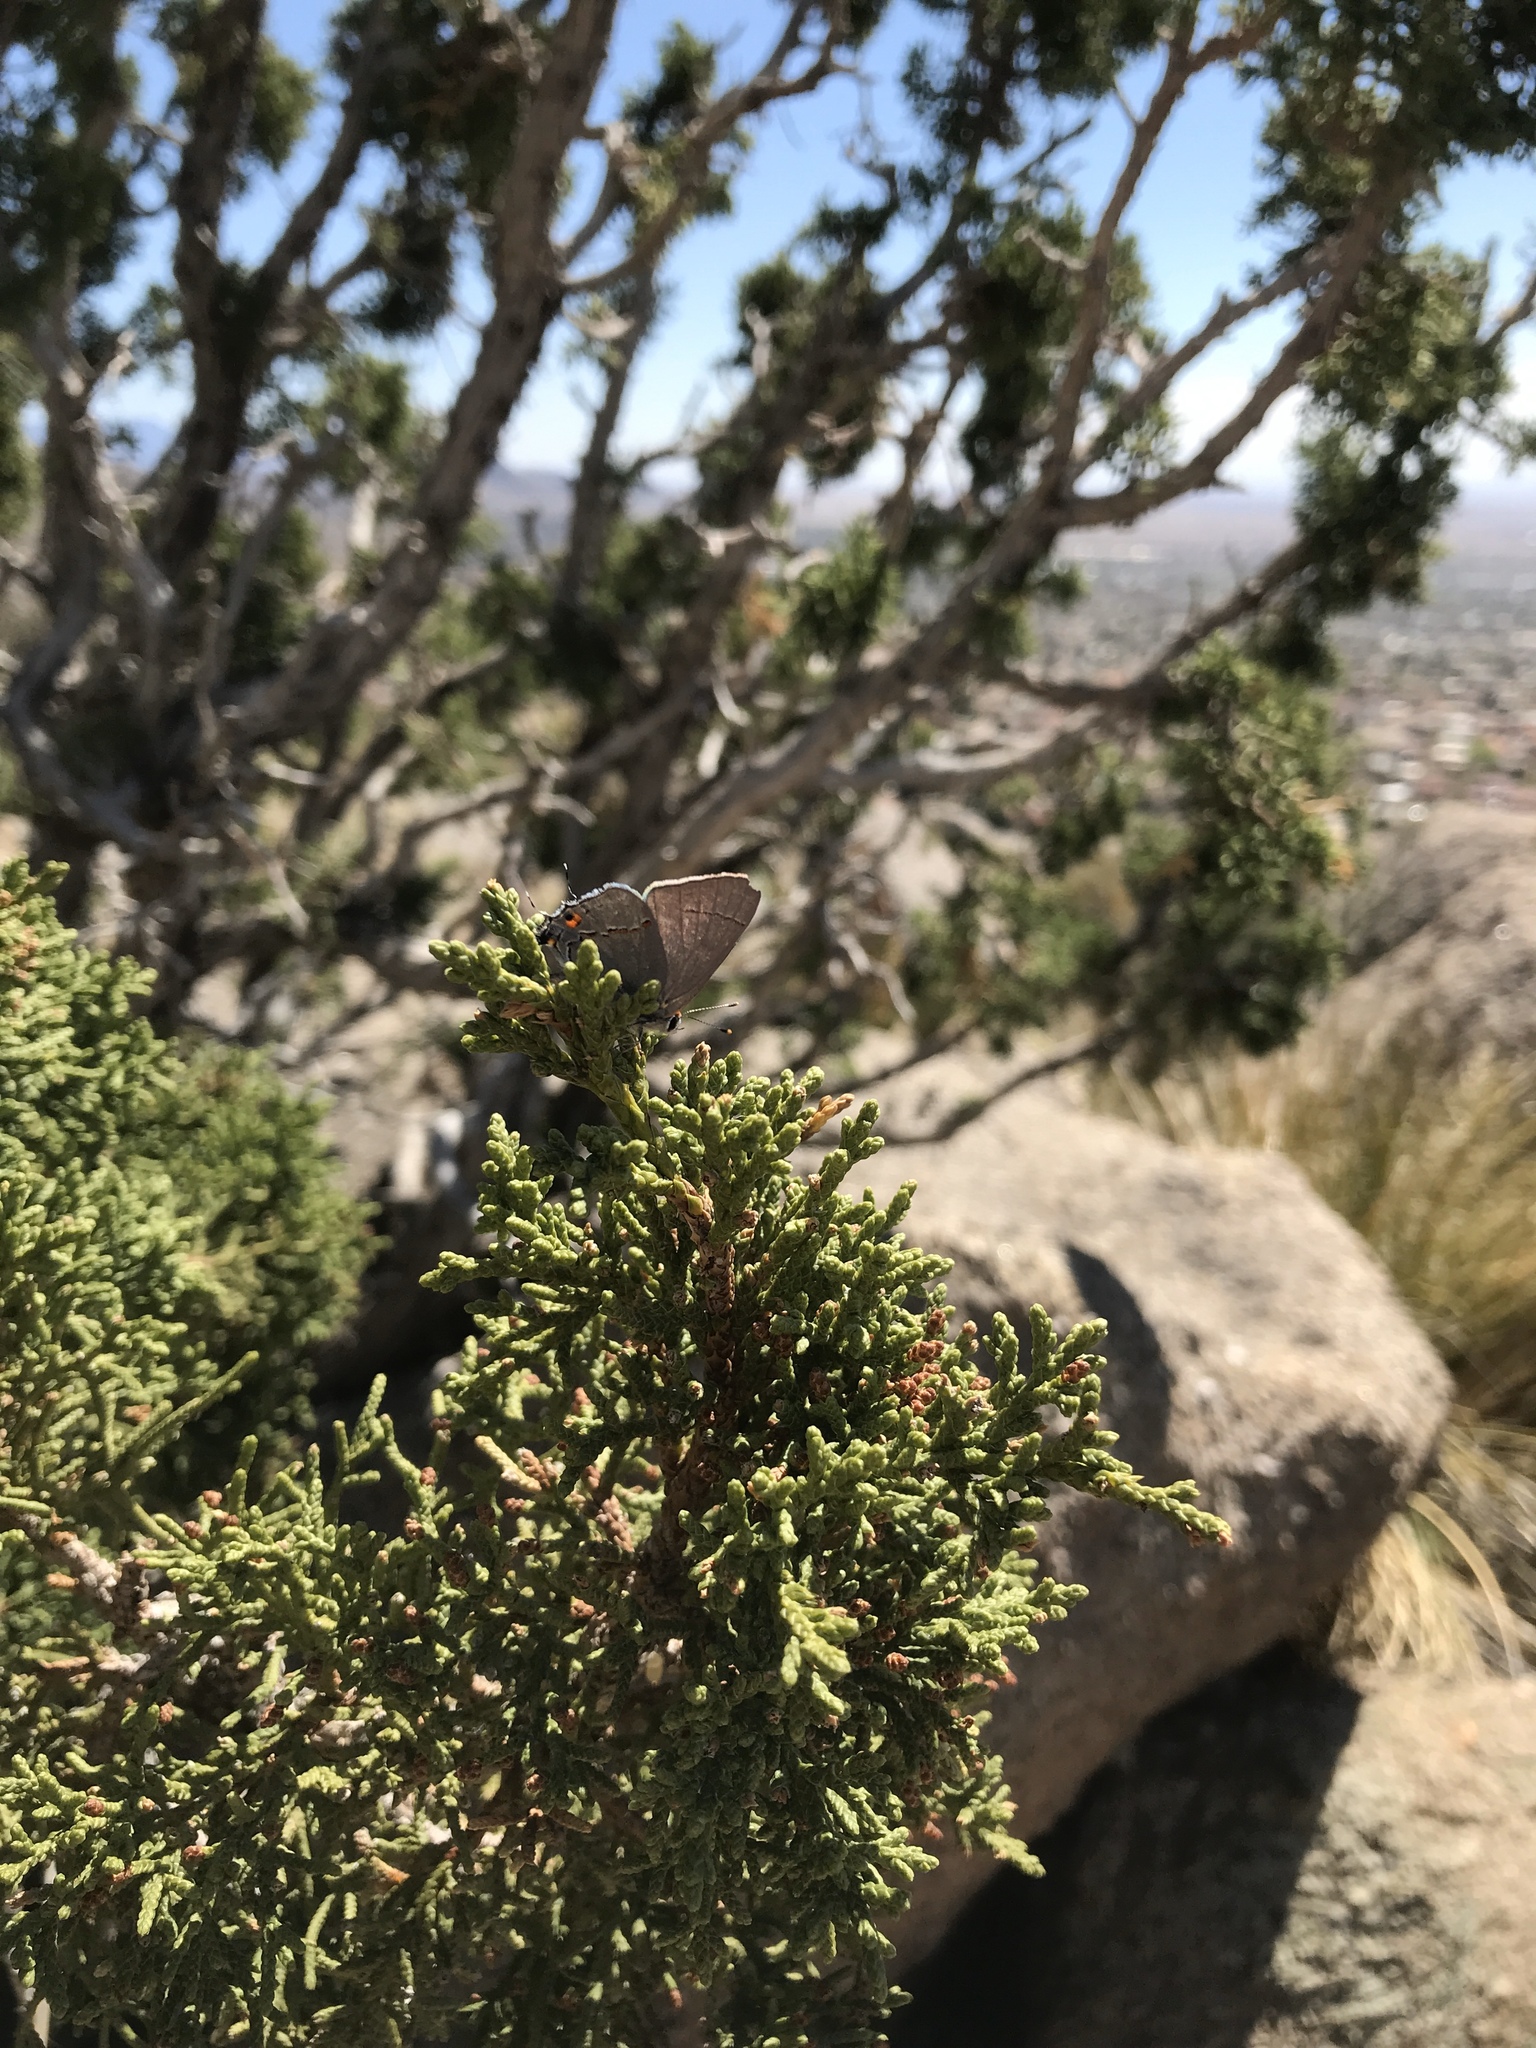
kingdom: Animalia
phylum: Arthropoda
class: Insecta
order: Lepidoptera
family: Lycaenidae
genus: Strymon
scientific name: Strymon melinus
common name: Gray hairstreak
